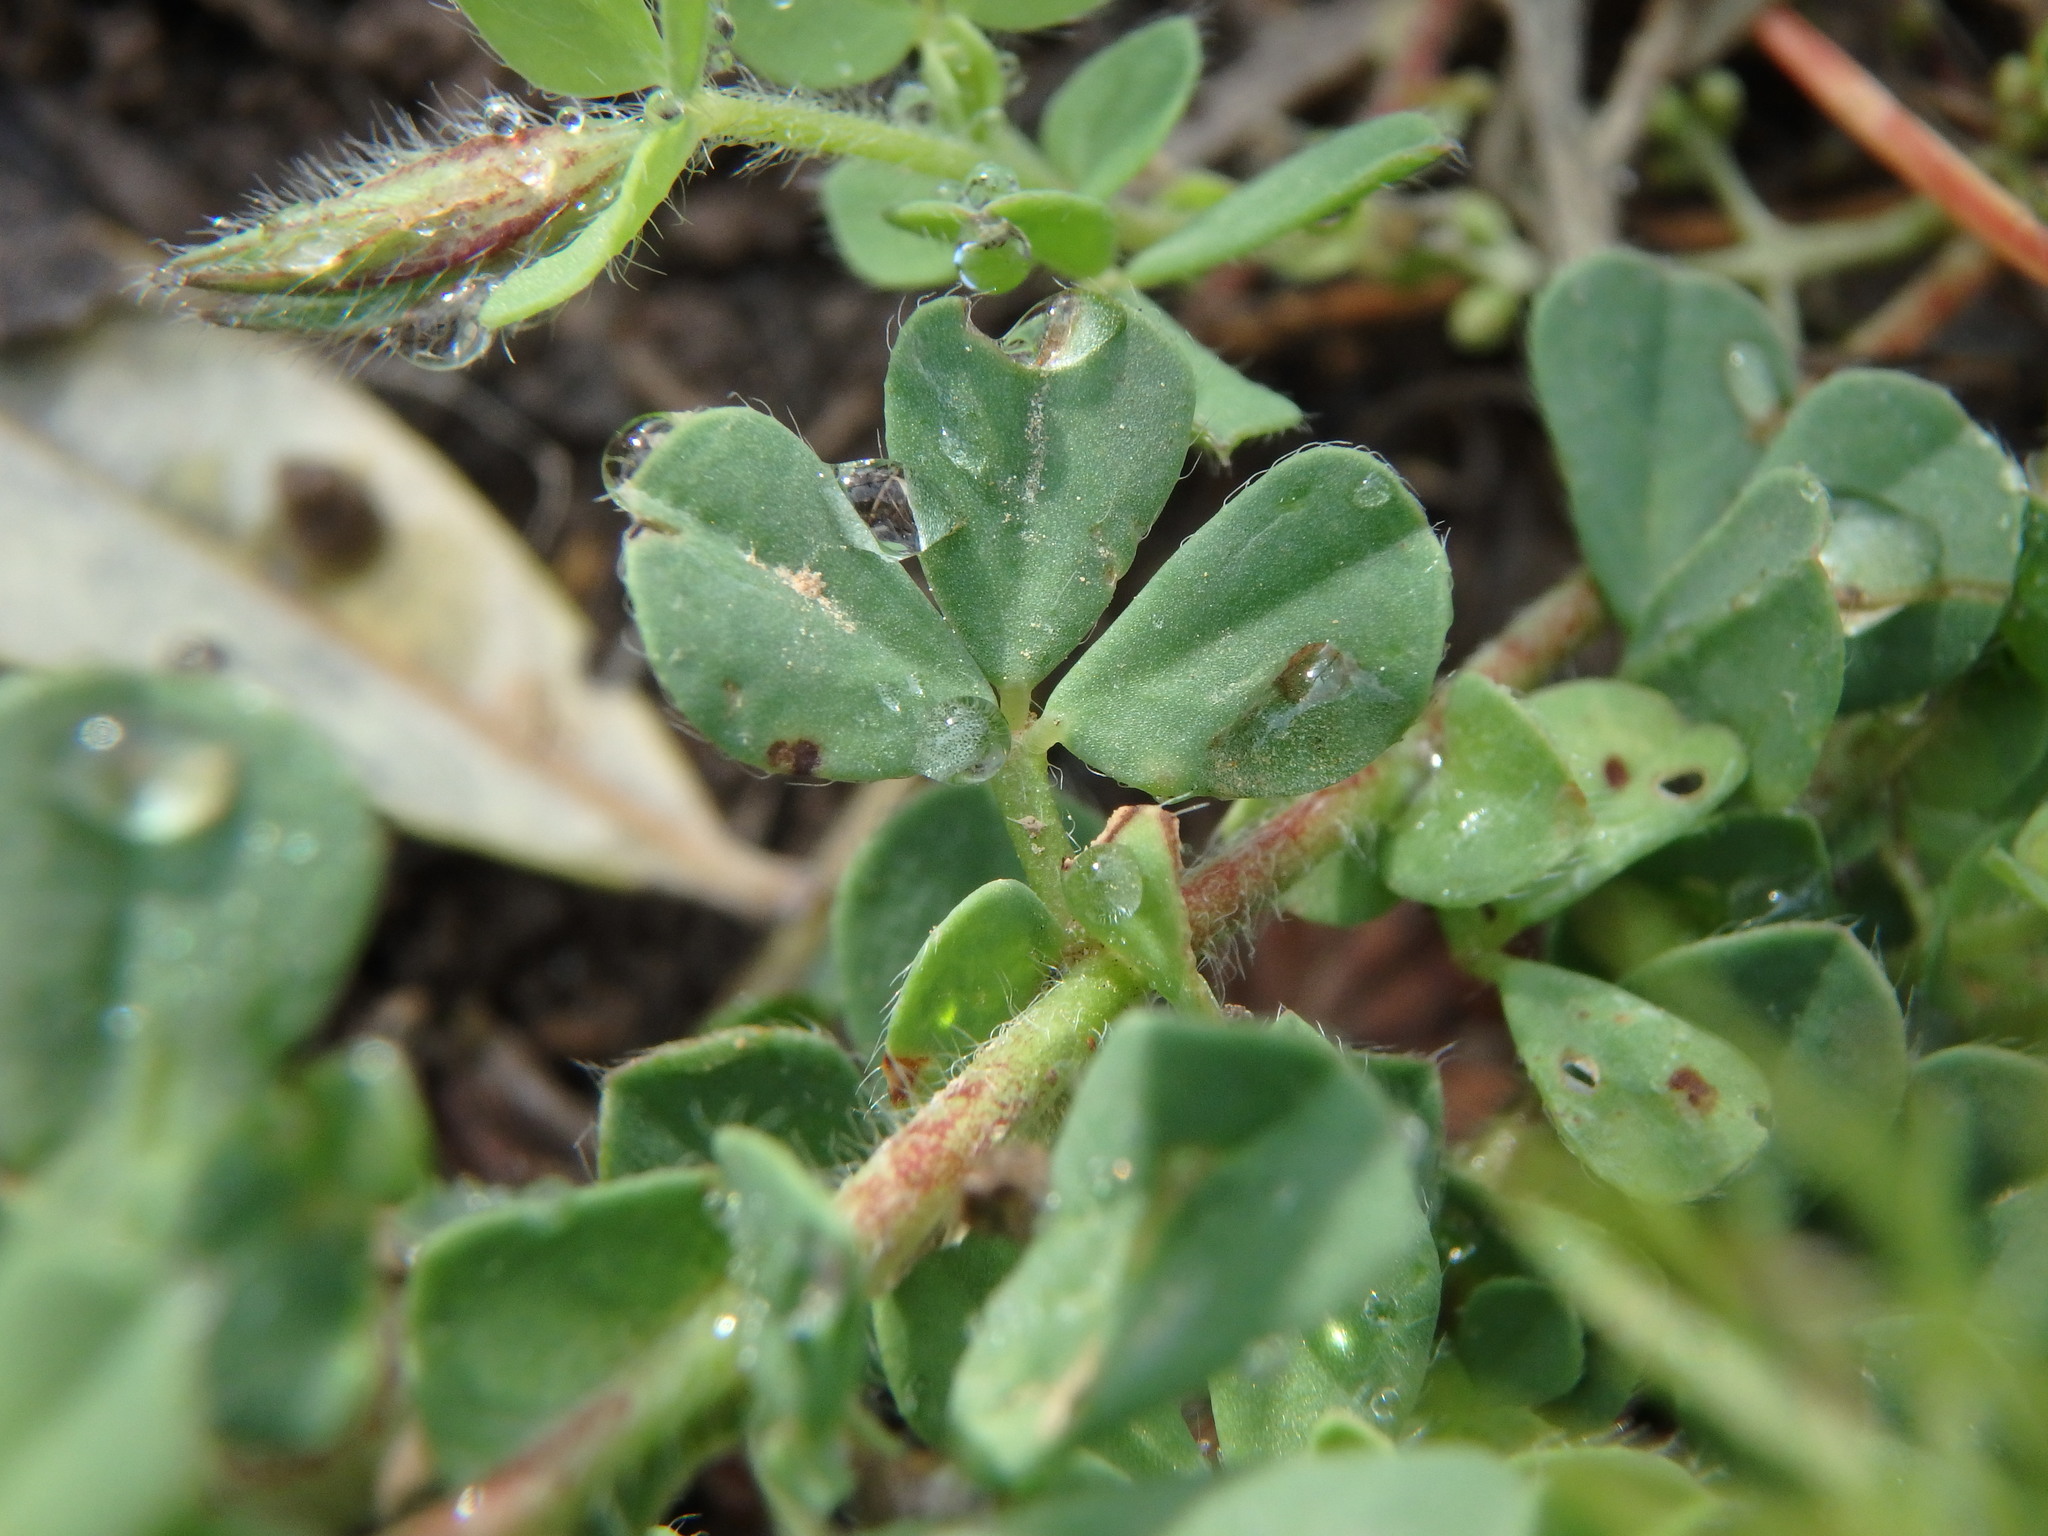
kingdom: Plantae
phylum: Tracheophyta
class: Magnoliopsida
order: Fabales
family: Fabaceae
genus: Lotus
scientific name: Lotus edulis
